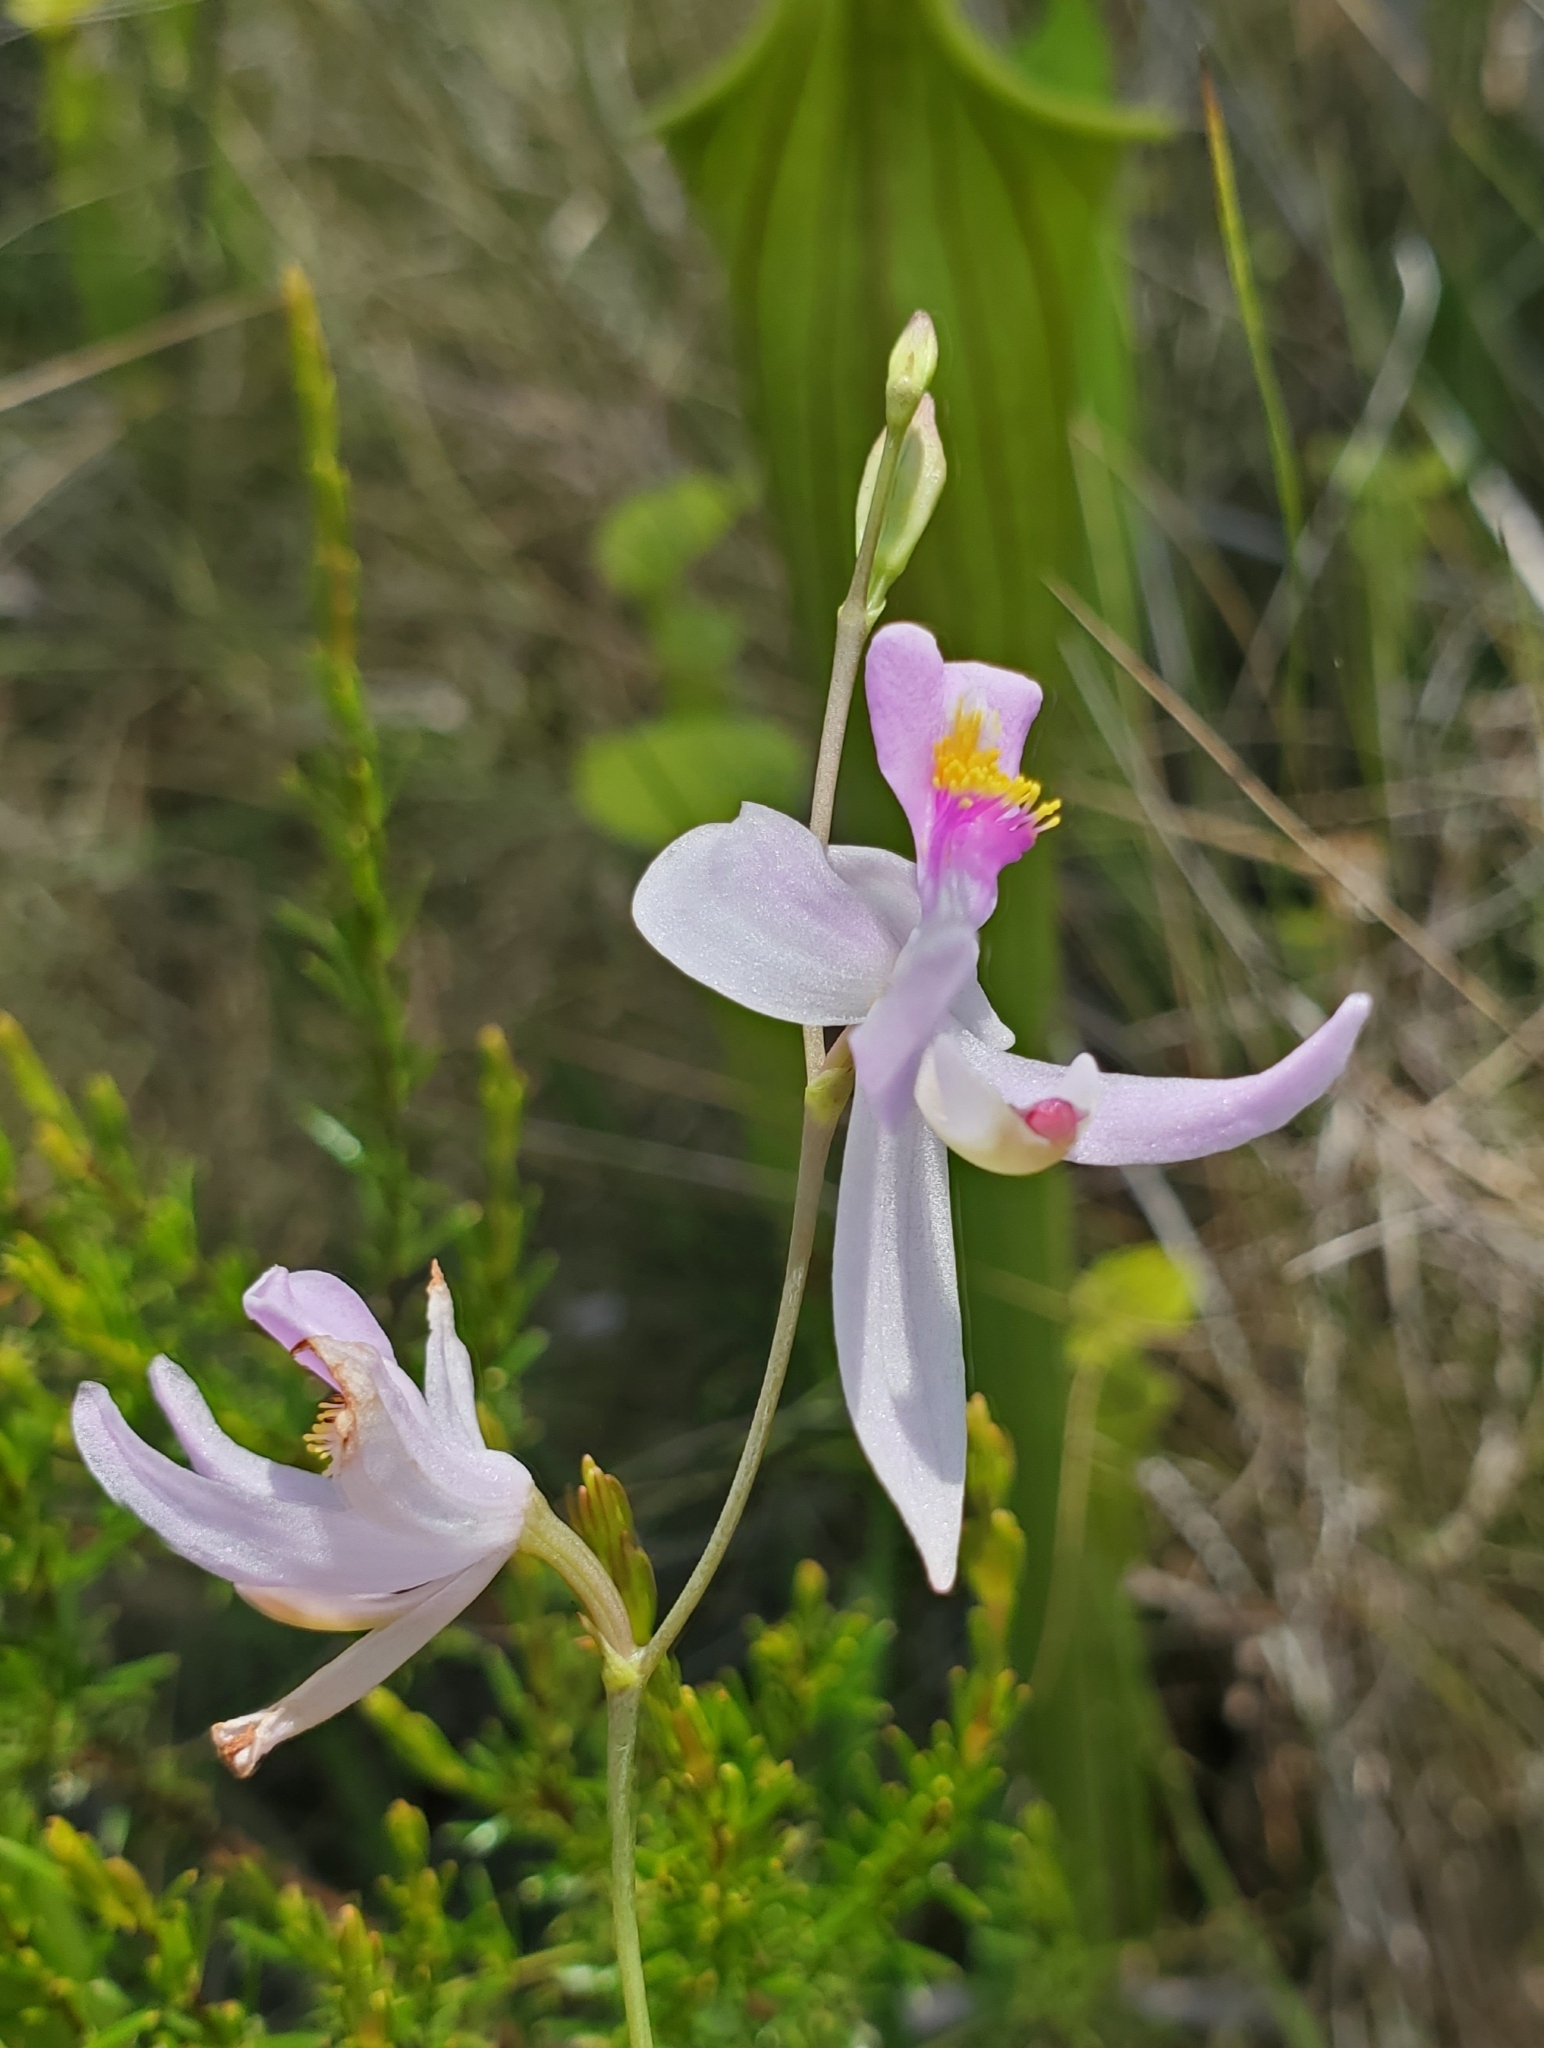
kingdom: Plantae
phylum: Tracheophyta
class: Liliopsida
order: Asparagales
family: Orchidaceae
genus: Calopogon
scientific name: Calopogon pallidus
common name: Pale grasspink
